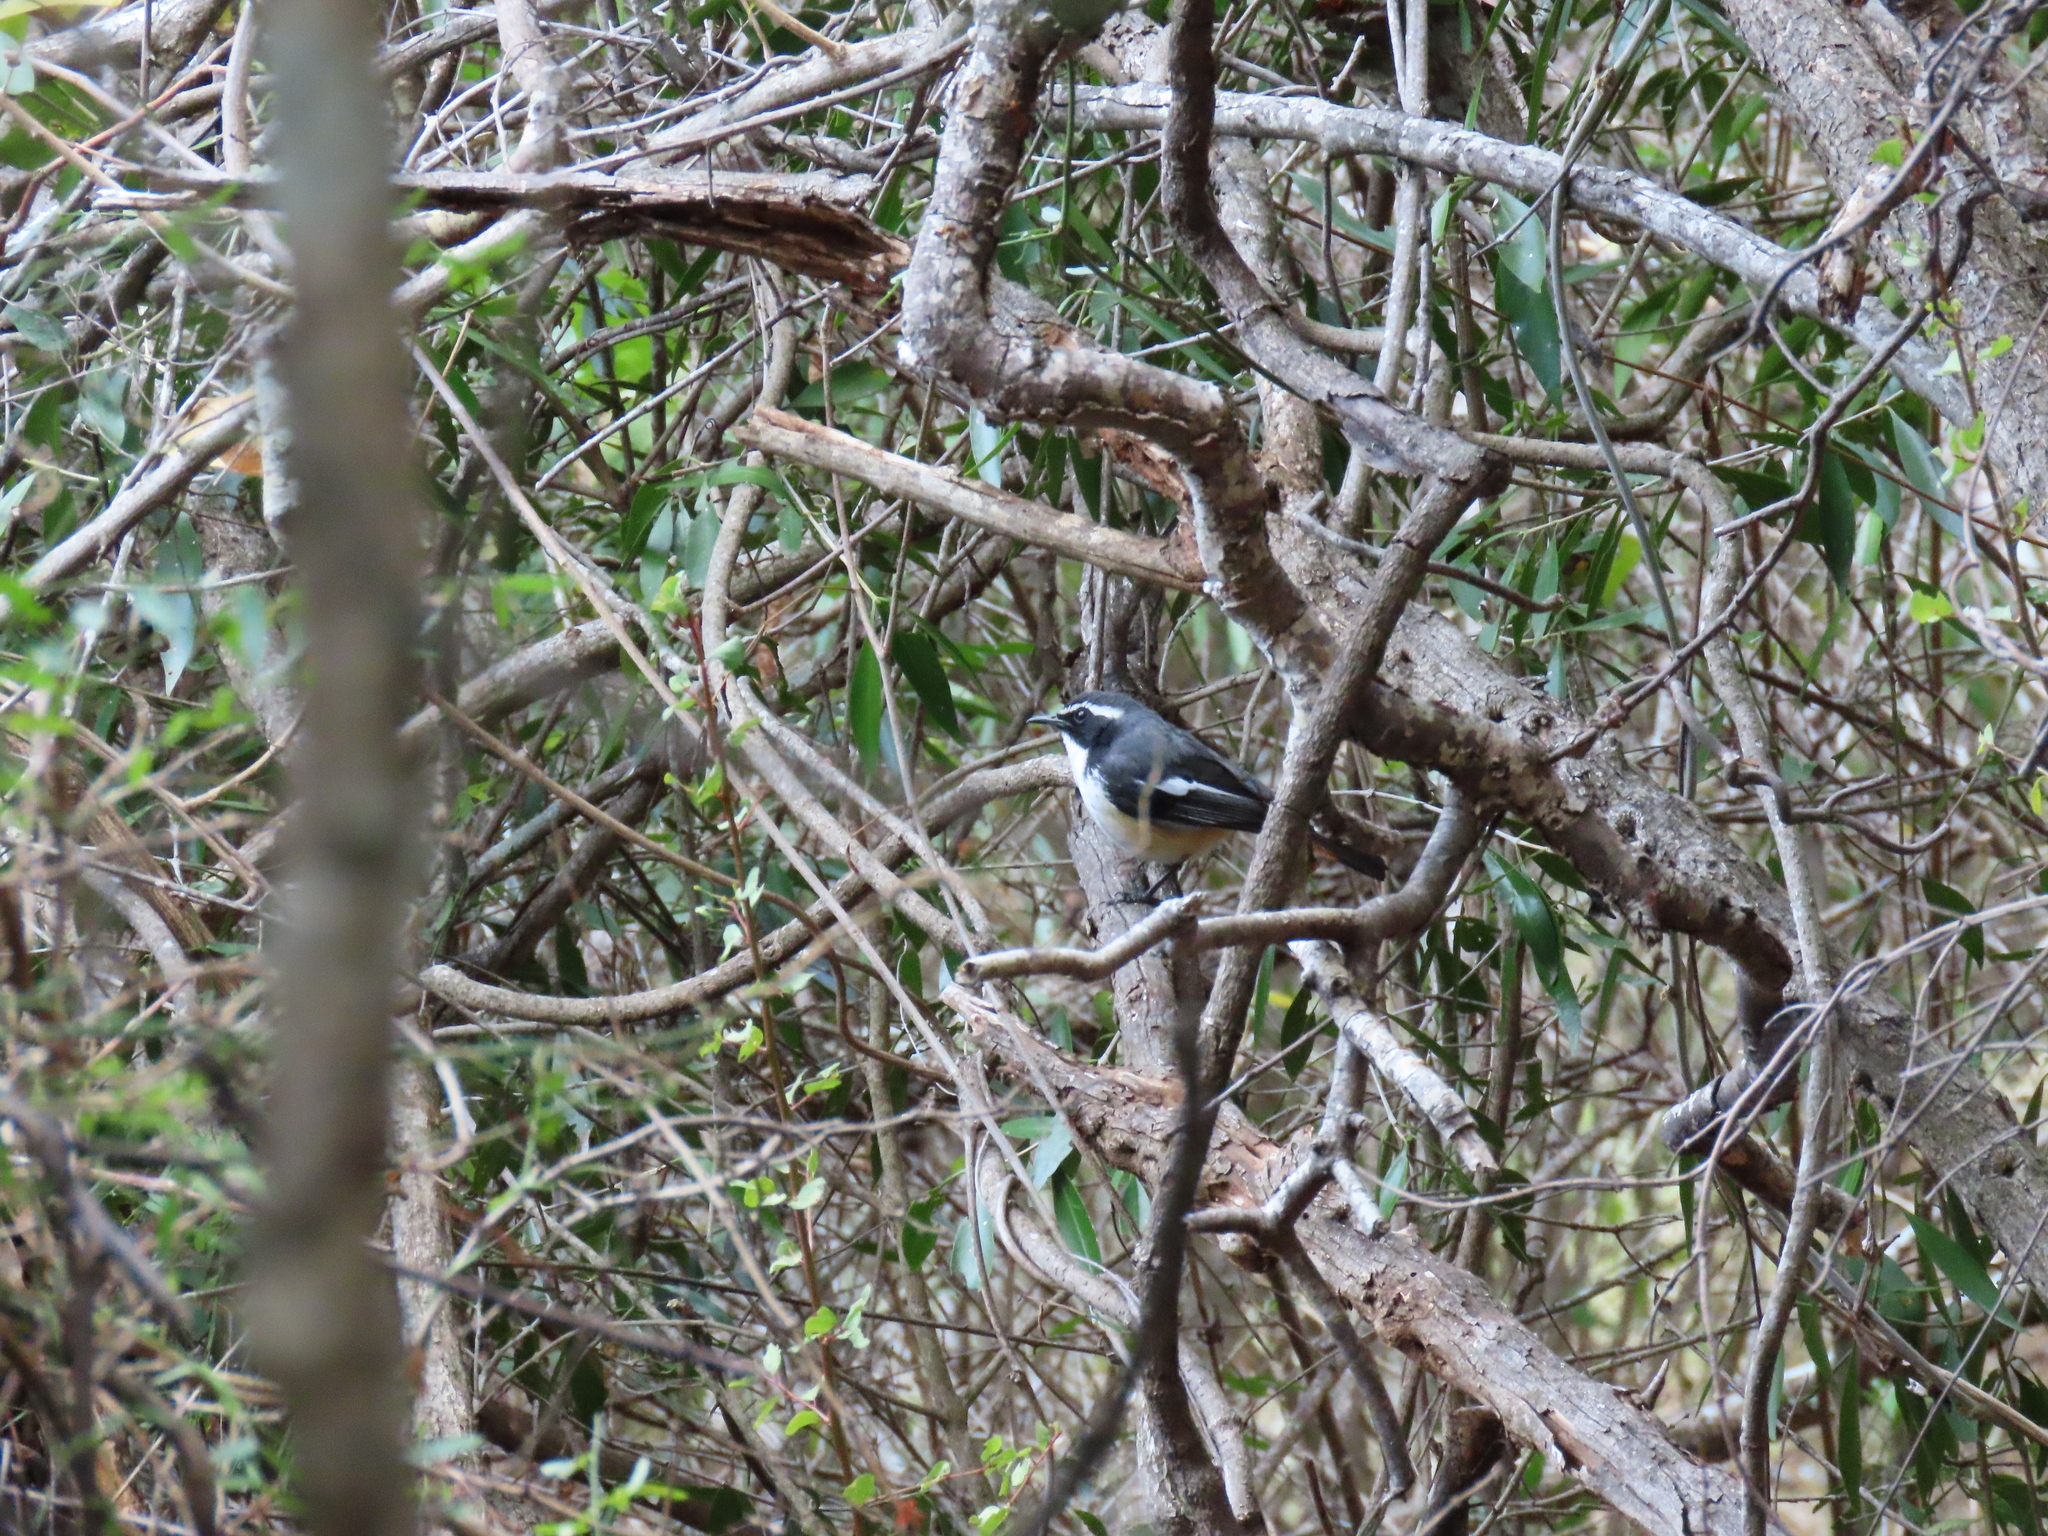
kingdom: Animalia
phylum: Chordata
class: Aves
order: Passeriformes
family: Muscicapidae
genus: Cossypha
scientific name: Cossypha humeralis
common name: White-throated robin-chat
